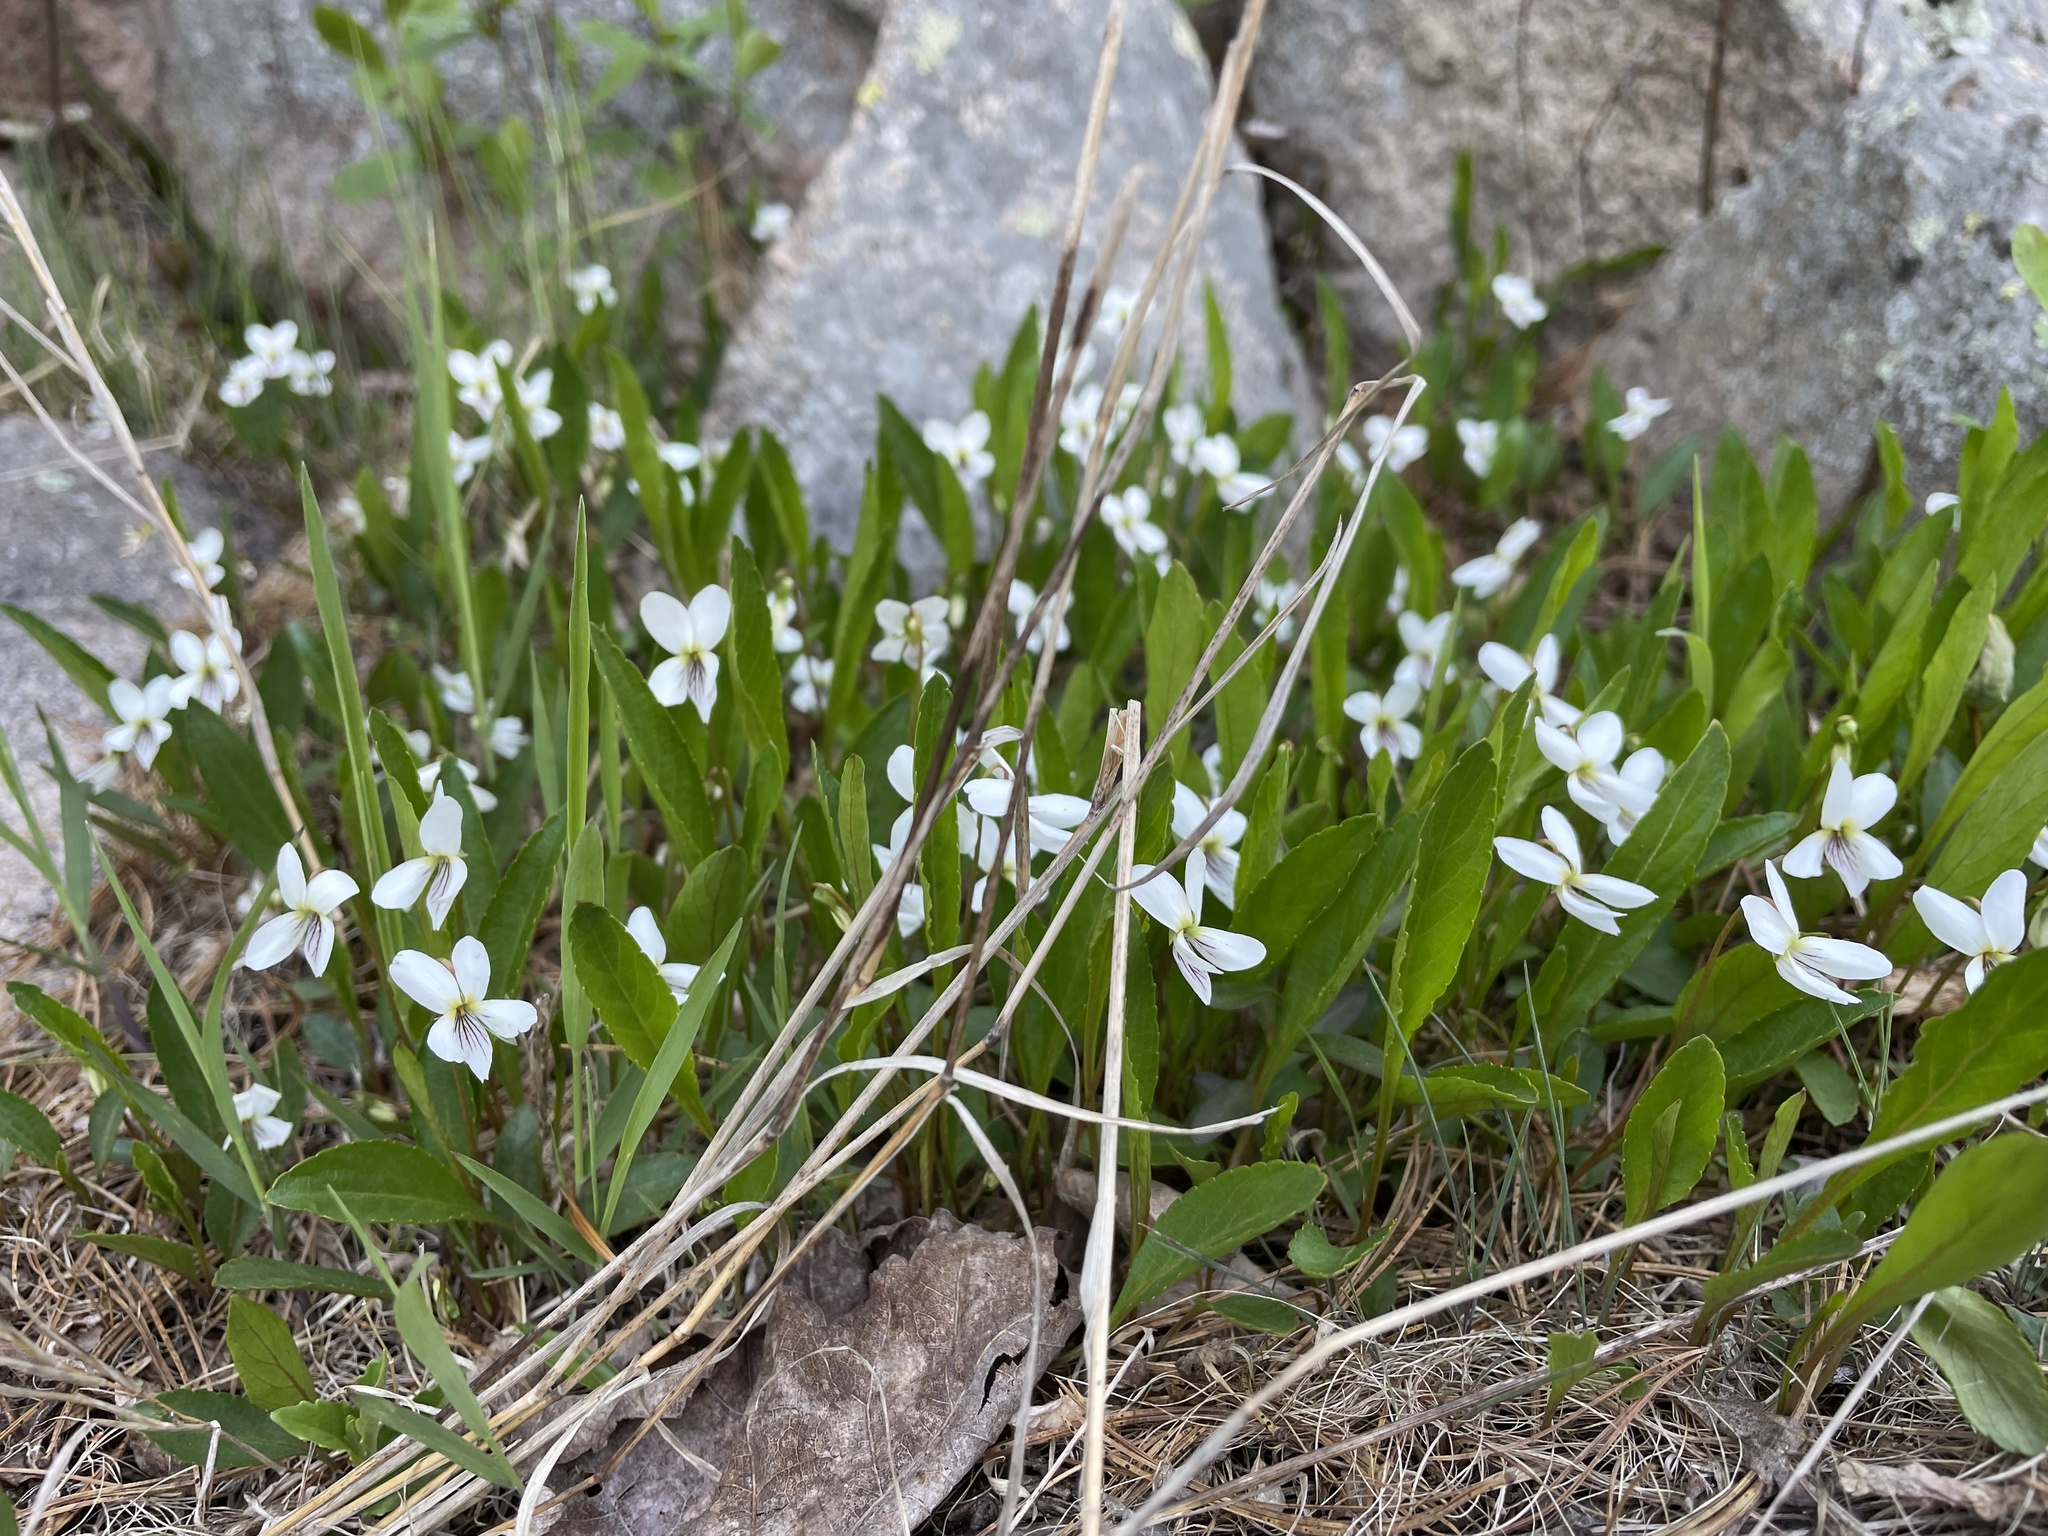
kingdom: Plantae
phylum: Tracheophyta
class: Magnoliopsida
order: Malpighiales
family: Violaceae
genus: Viola
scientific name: Viola lanceolata
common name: Bog white violet
